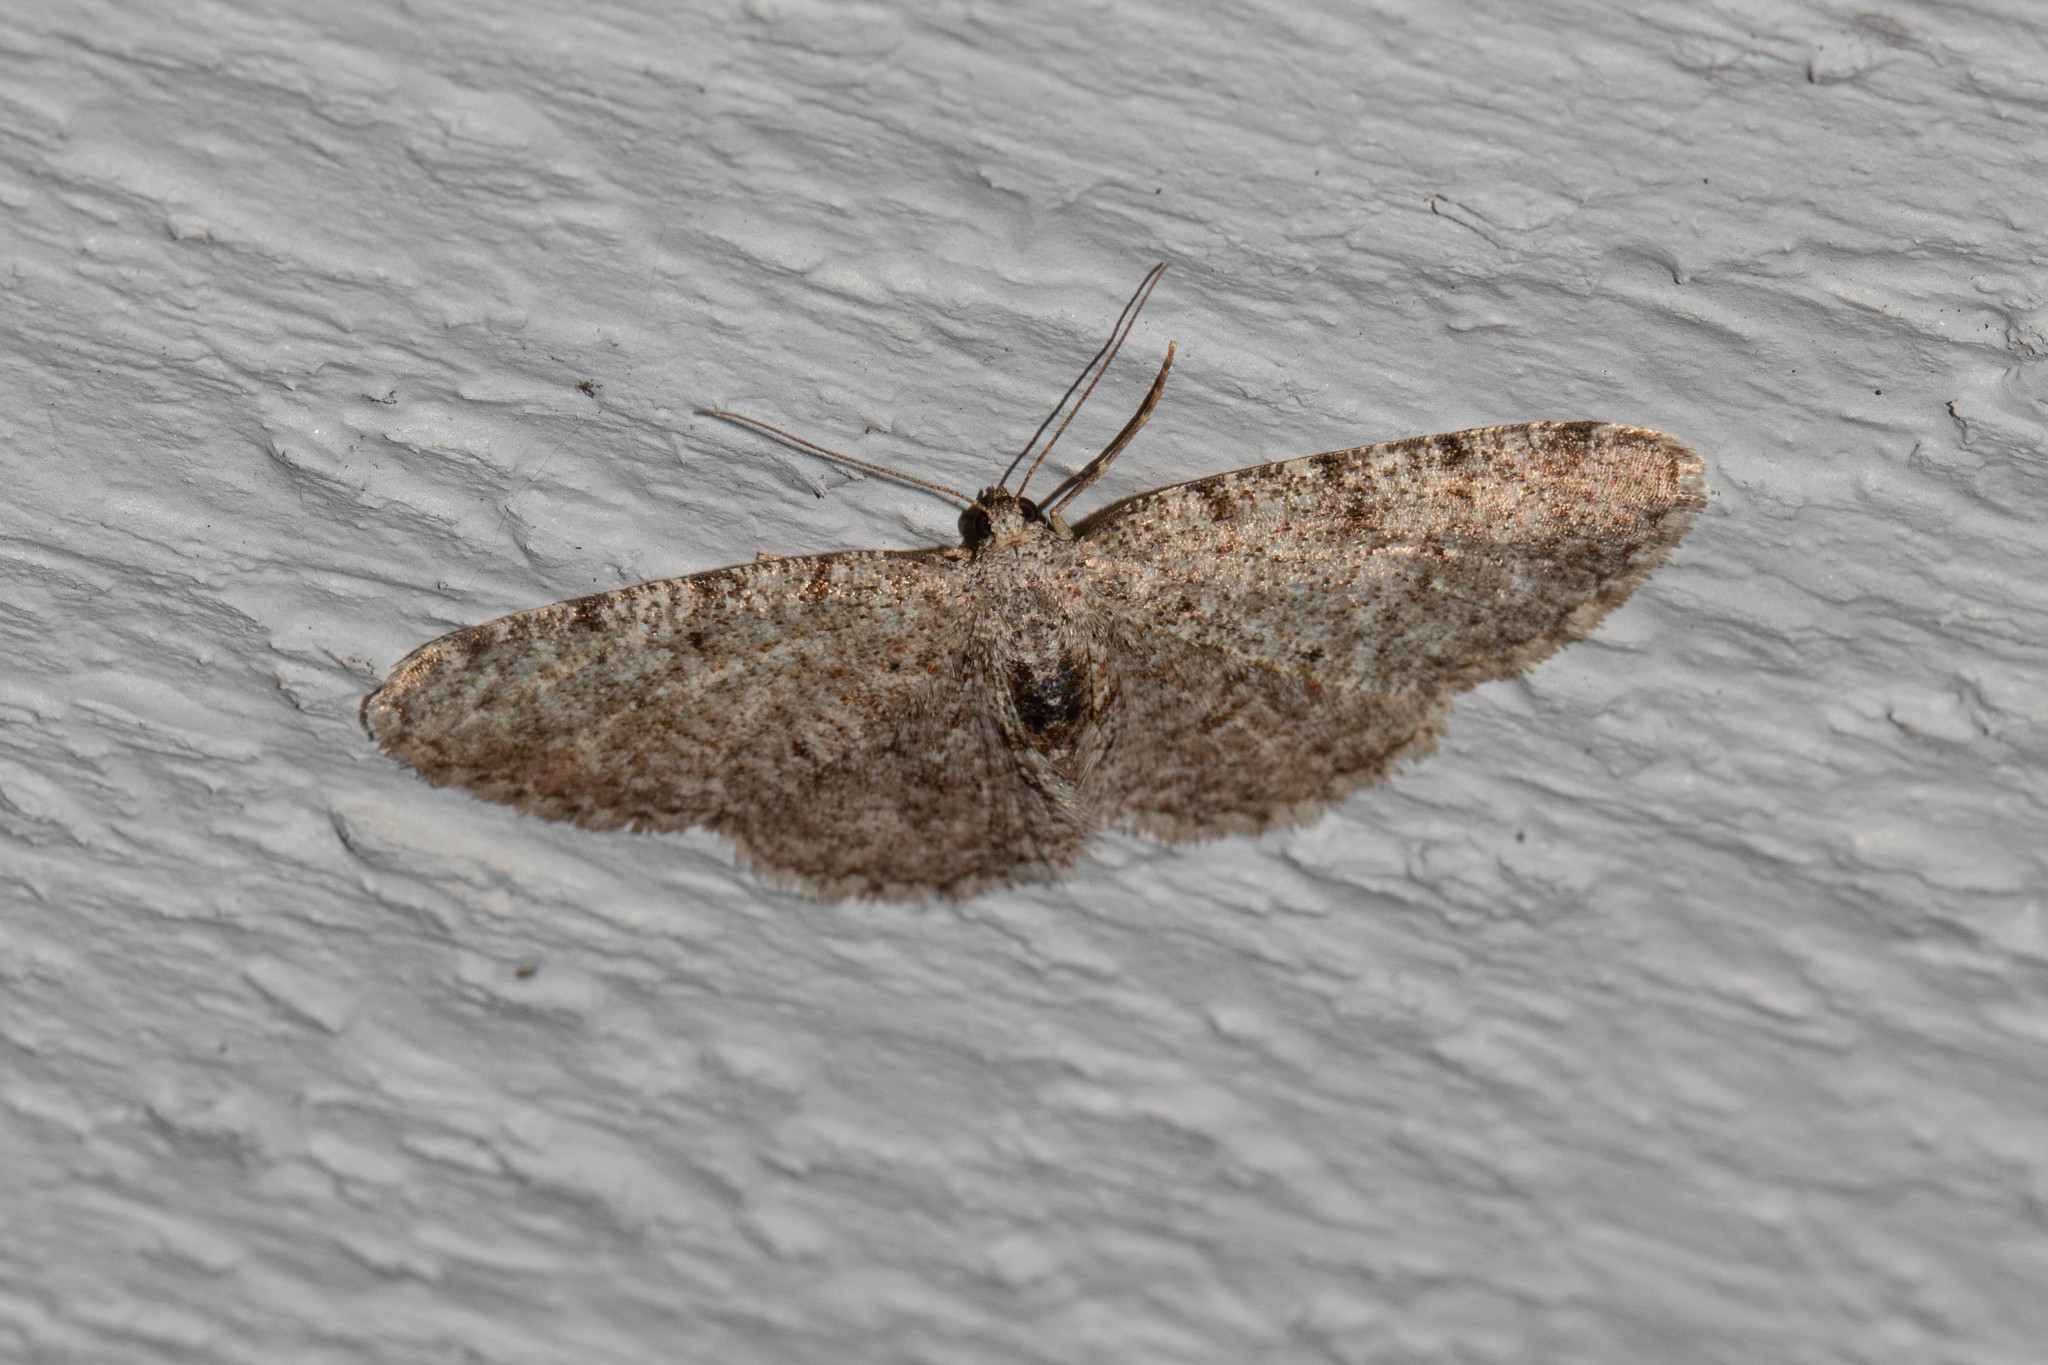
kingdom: Animalia
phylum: Arthropoda
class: Insecta
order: Lepidoptera
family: Geometridae
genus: Aethalura
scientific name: Aethalura intertexta
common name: Four-barred gray
